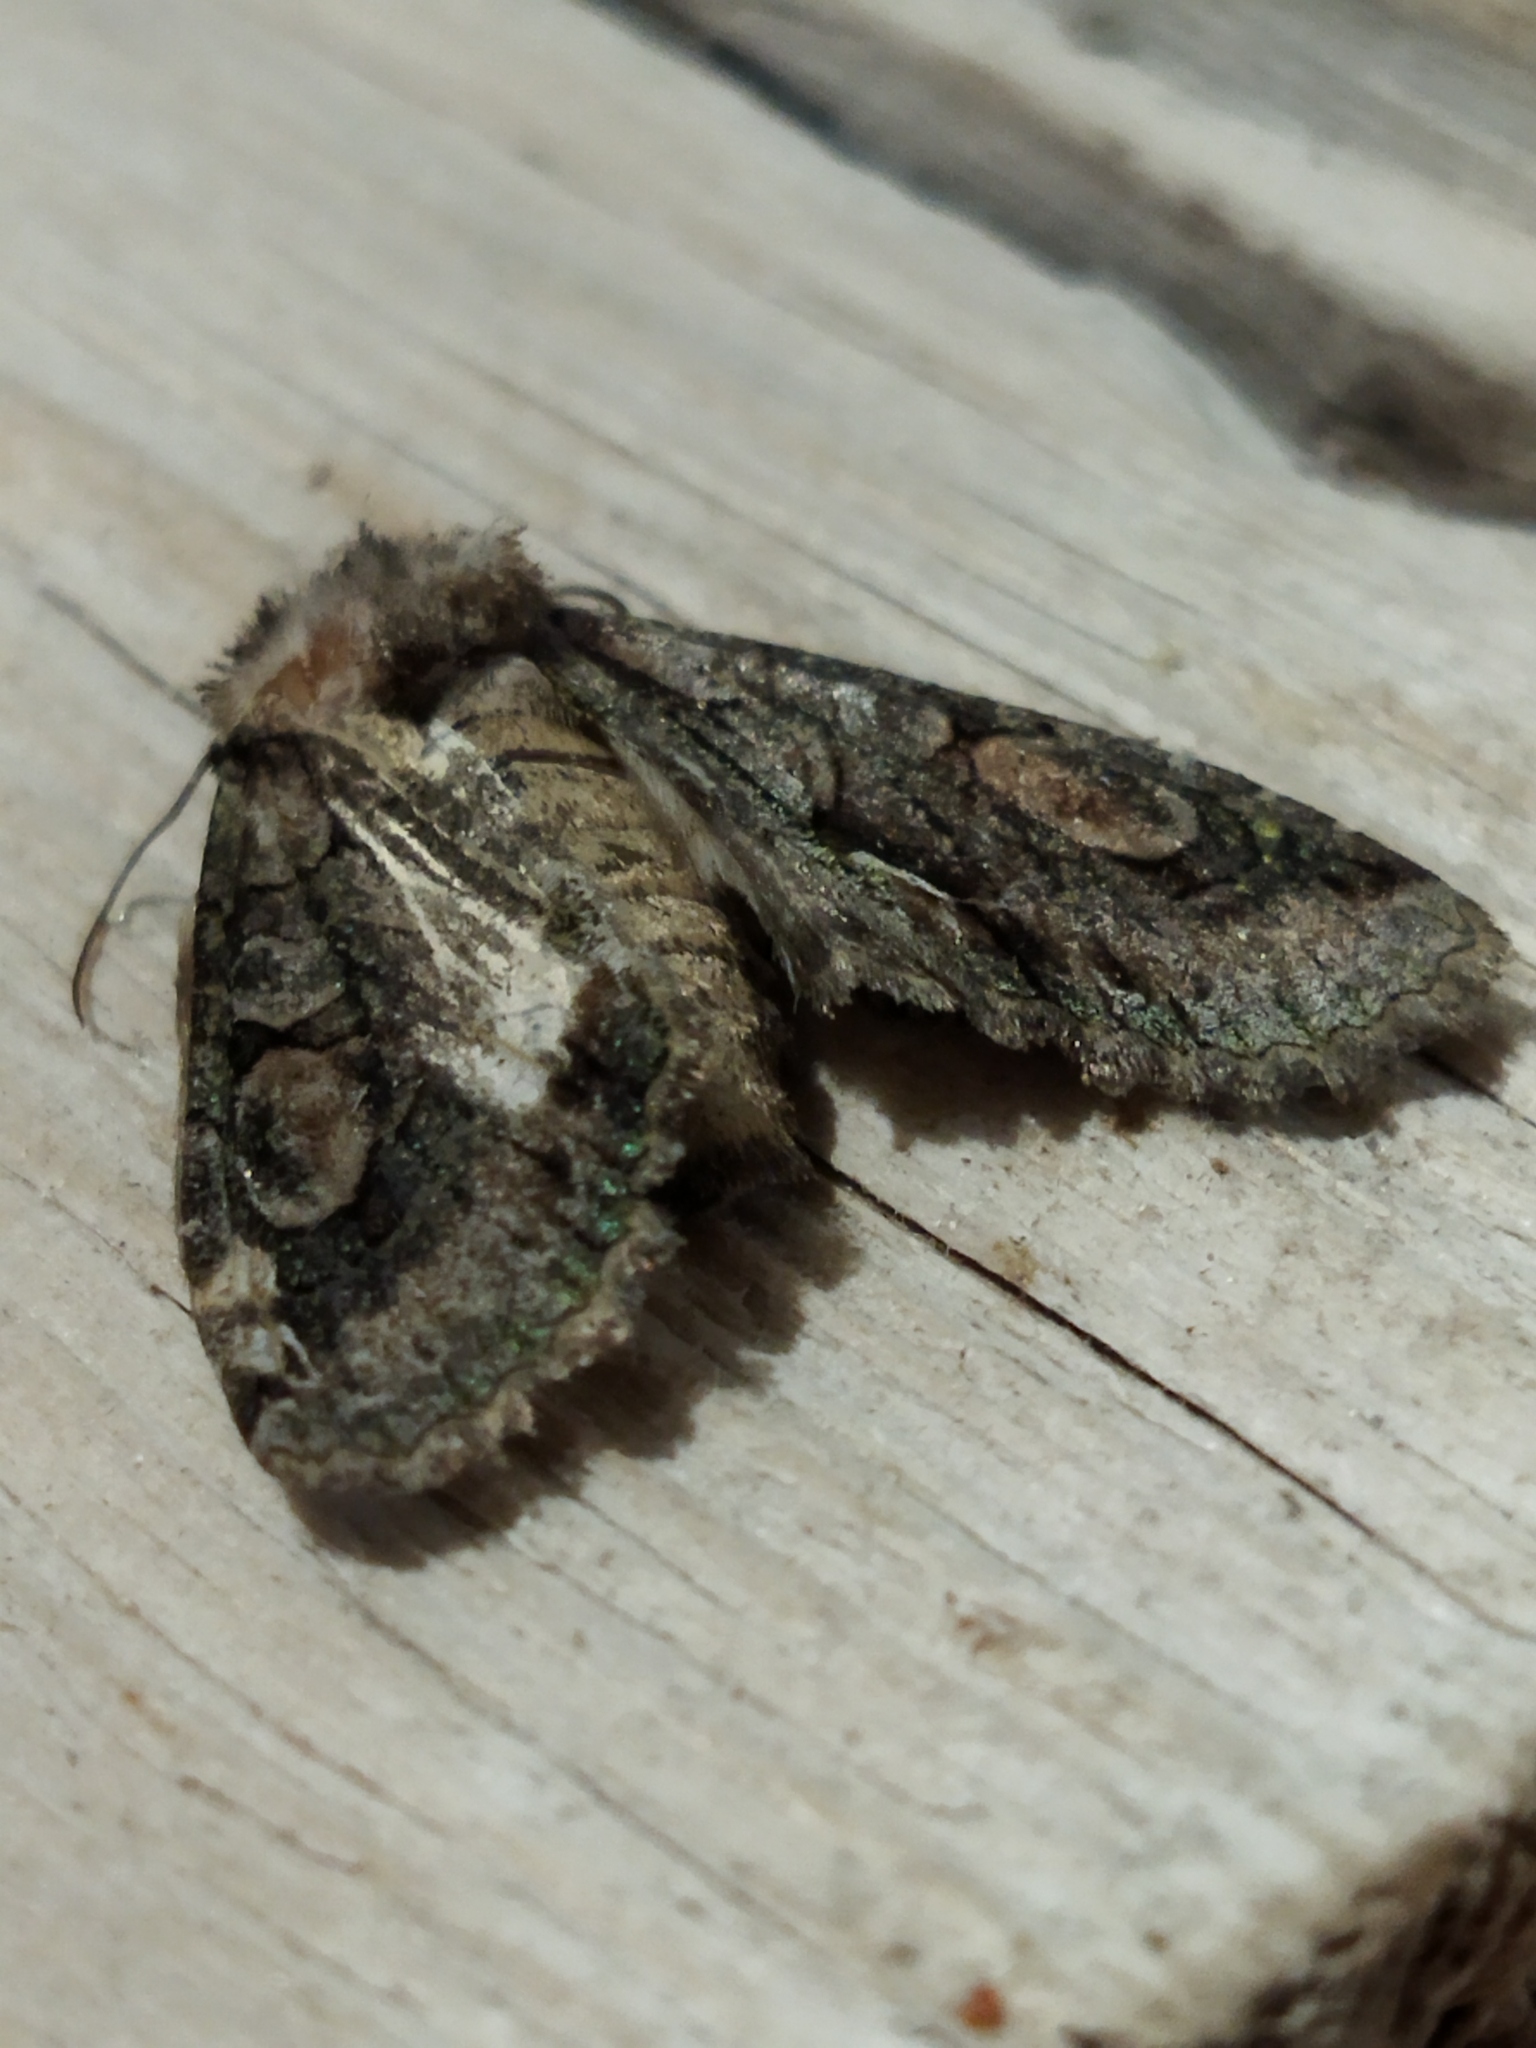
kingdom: Animalia
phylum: Arthropoda
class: Insecta
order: Lepidoptera
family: Noctuidae
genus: Allophyes
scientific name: Allophyes oxyacanthae
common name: Green-brindled crescent
